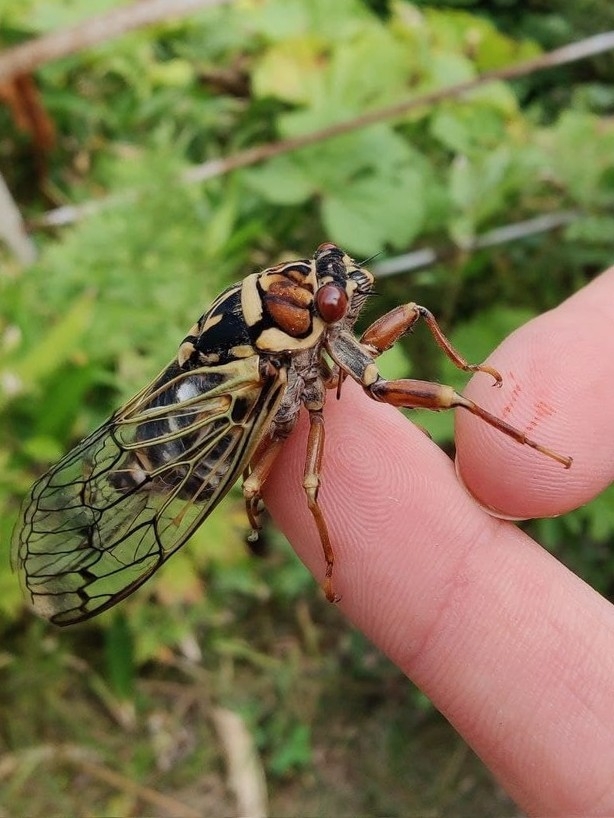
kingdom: Animalia
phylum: Arthropoda
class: Insecta
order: Hemiptera
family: Cicadidae
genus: Auritibicen
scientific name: Auritibicen bihamatus
